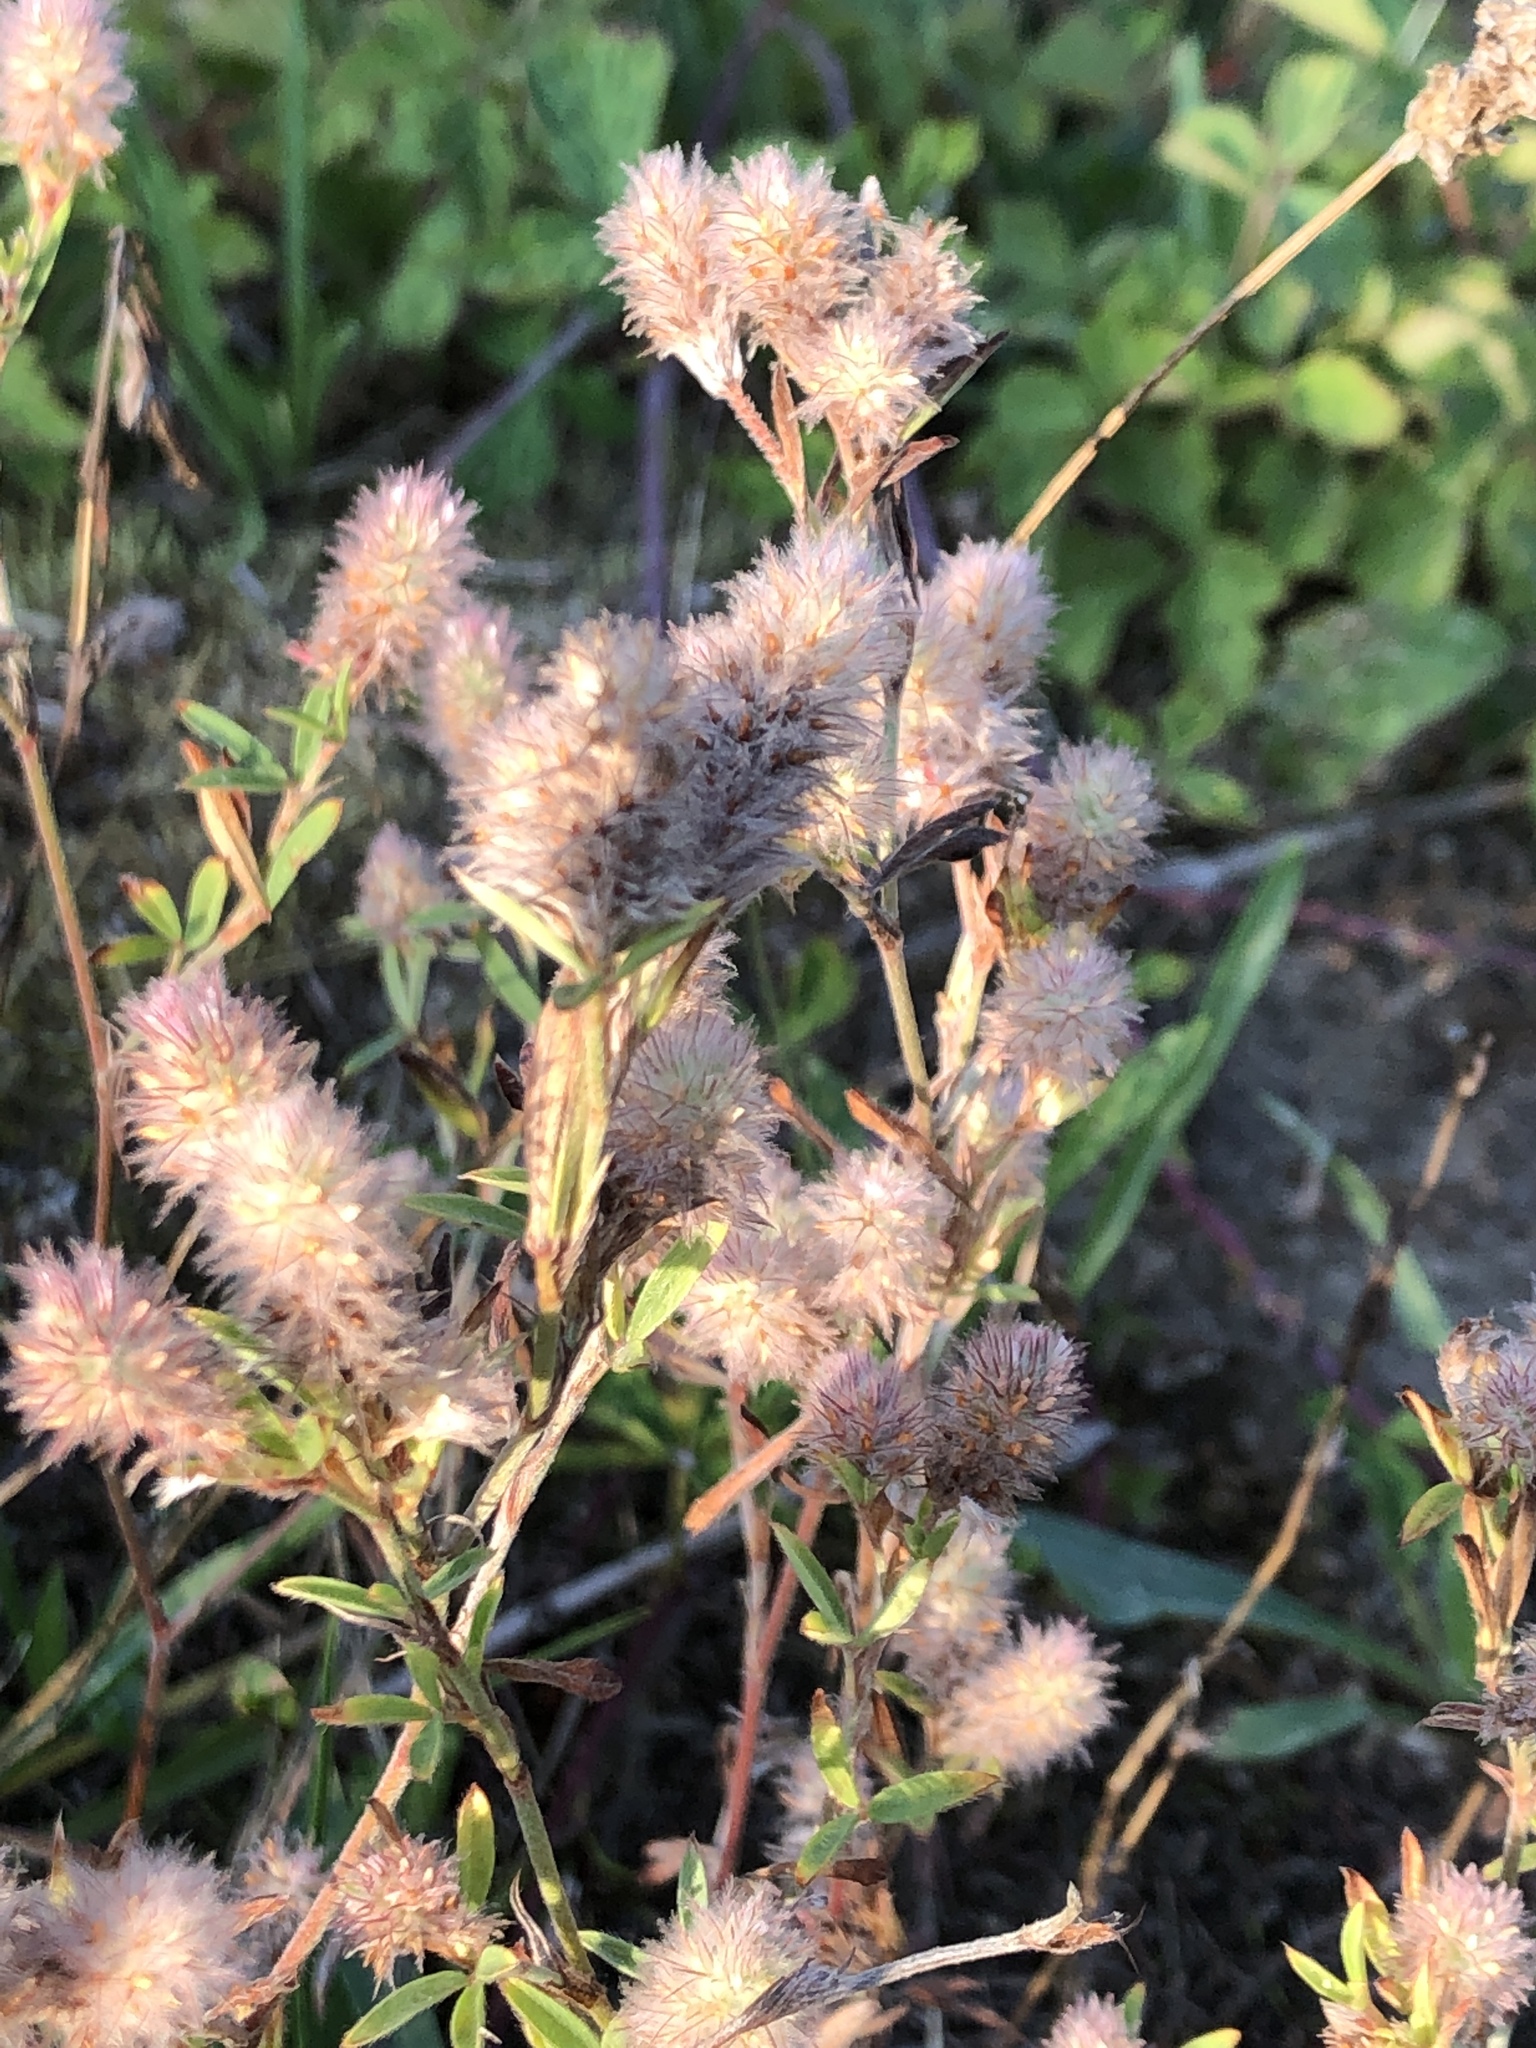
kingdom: Plantae
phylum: Tracheophyta
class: Magnoliopsida
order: Fabales
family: Fabaceae
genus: Trifolium
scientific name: Trifolium arvense
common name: Hare's-foot clover
